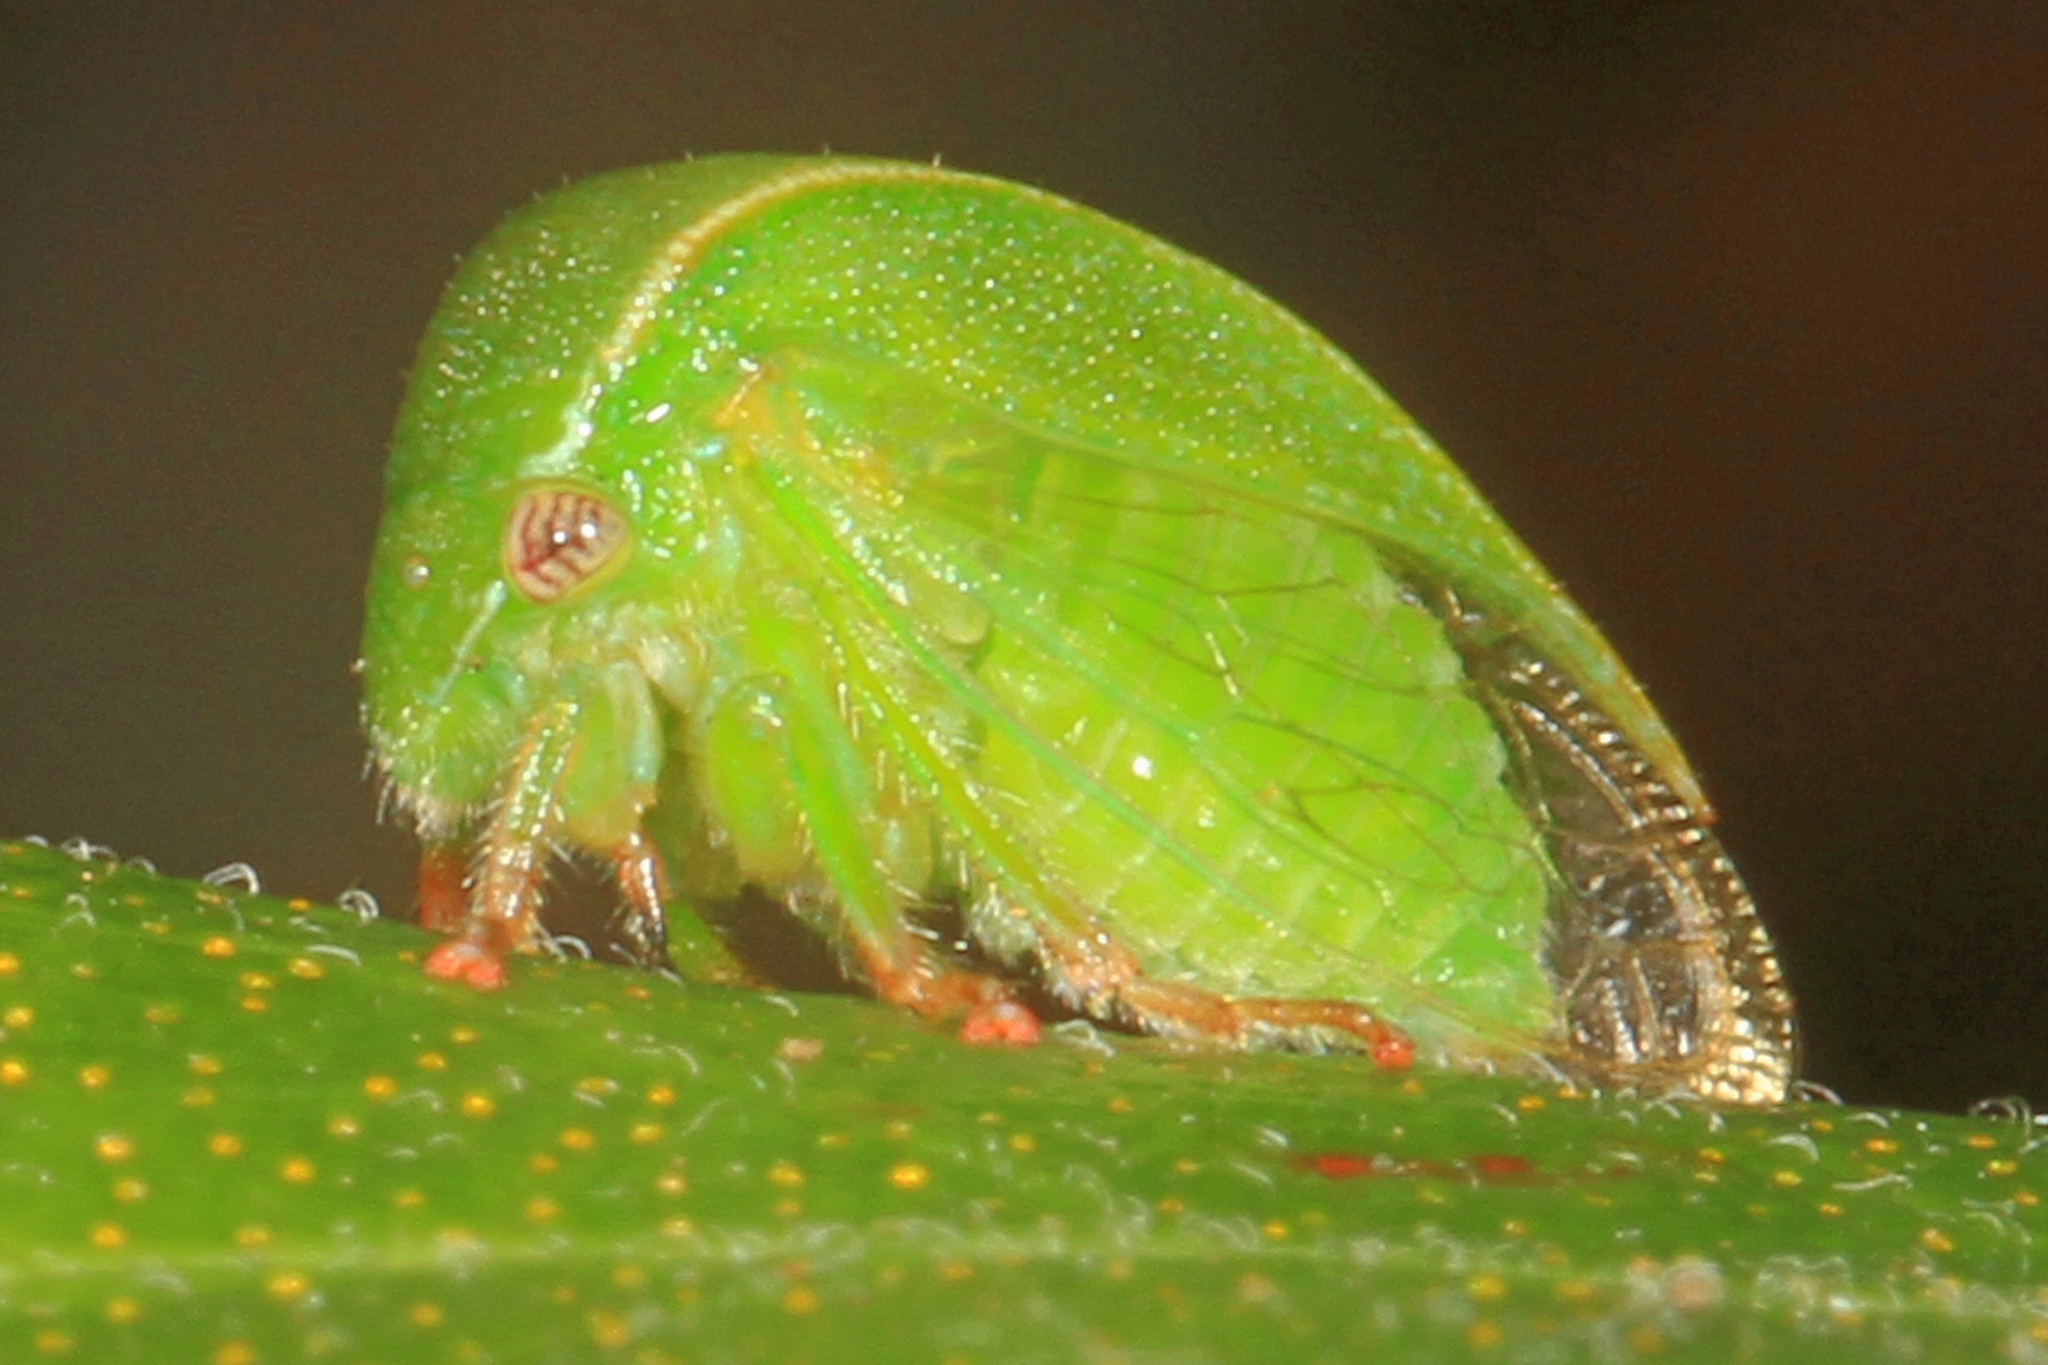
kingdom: Animalia
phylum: Arthropoda
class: Insecta
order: Hemiptera
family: Membracidae
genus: Spissistilus
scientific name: Spissistilus festina
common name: Membracid bug
